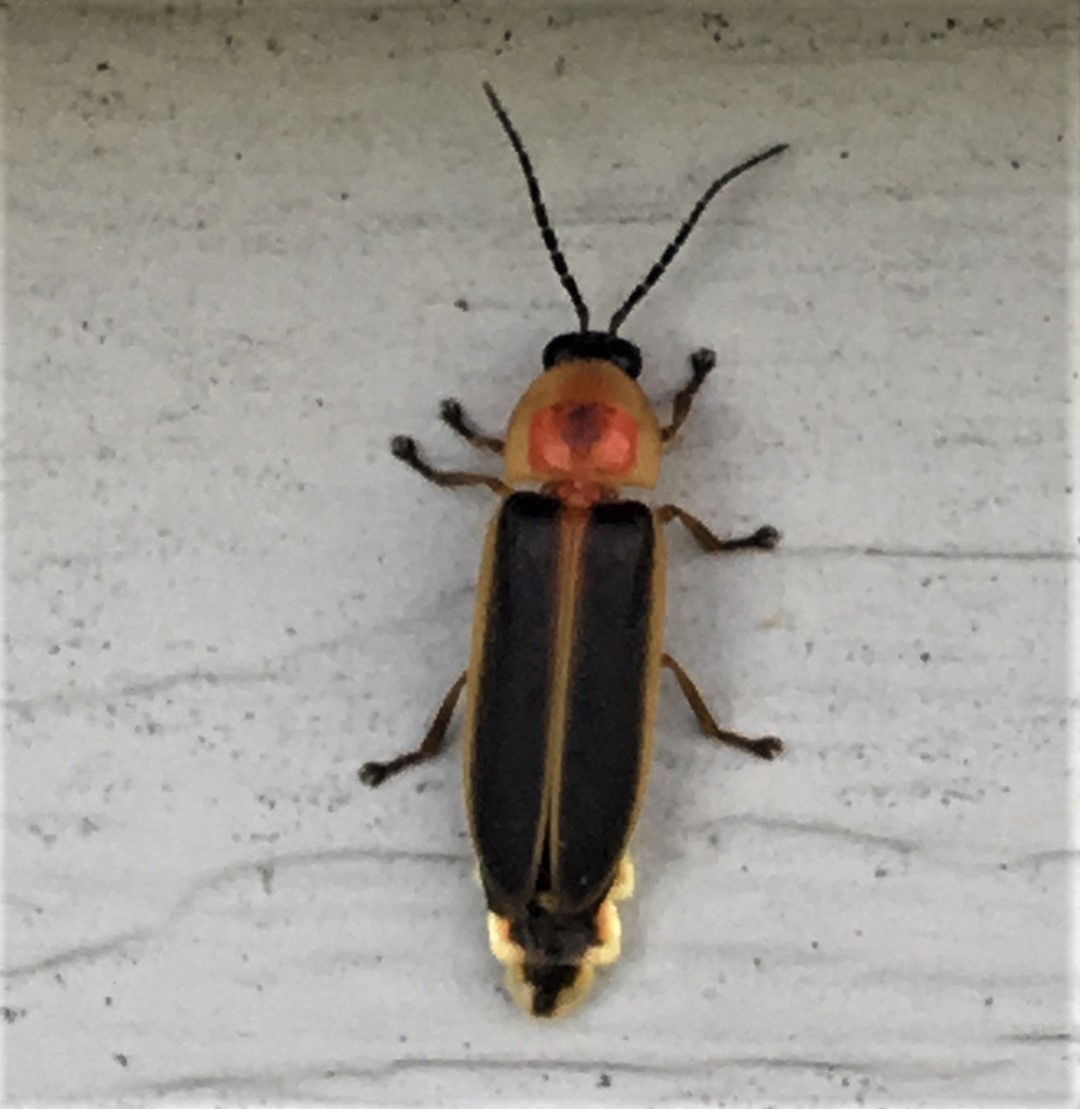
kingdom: Animalia
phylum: Arthropoda
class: Insecta
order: Coleoptera
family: Lampyridae
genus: Photinus
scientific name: Photinus pyralis
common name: Big dipper firefly
